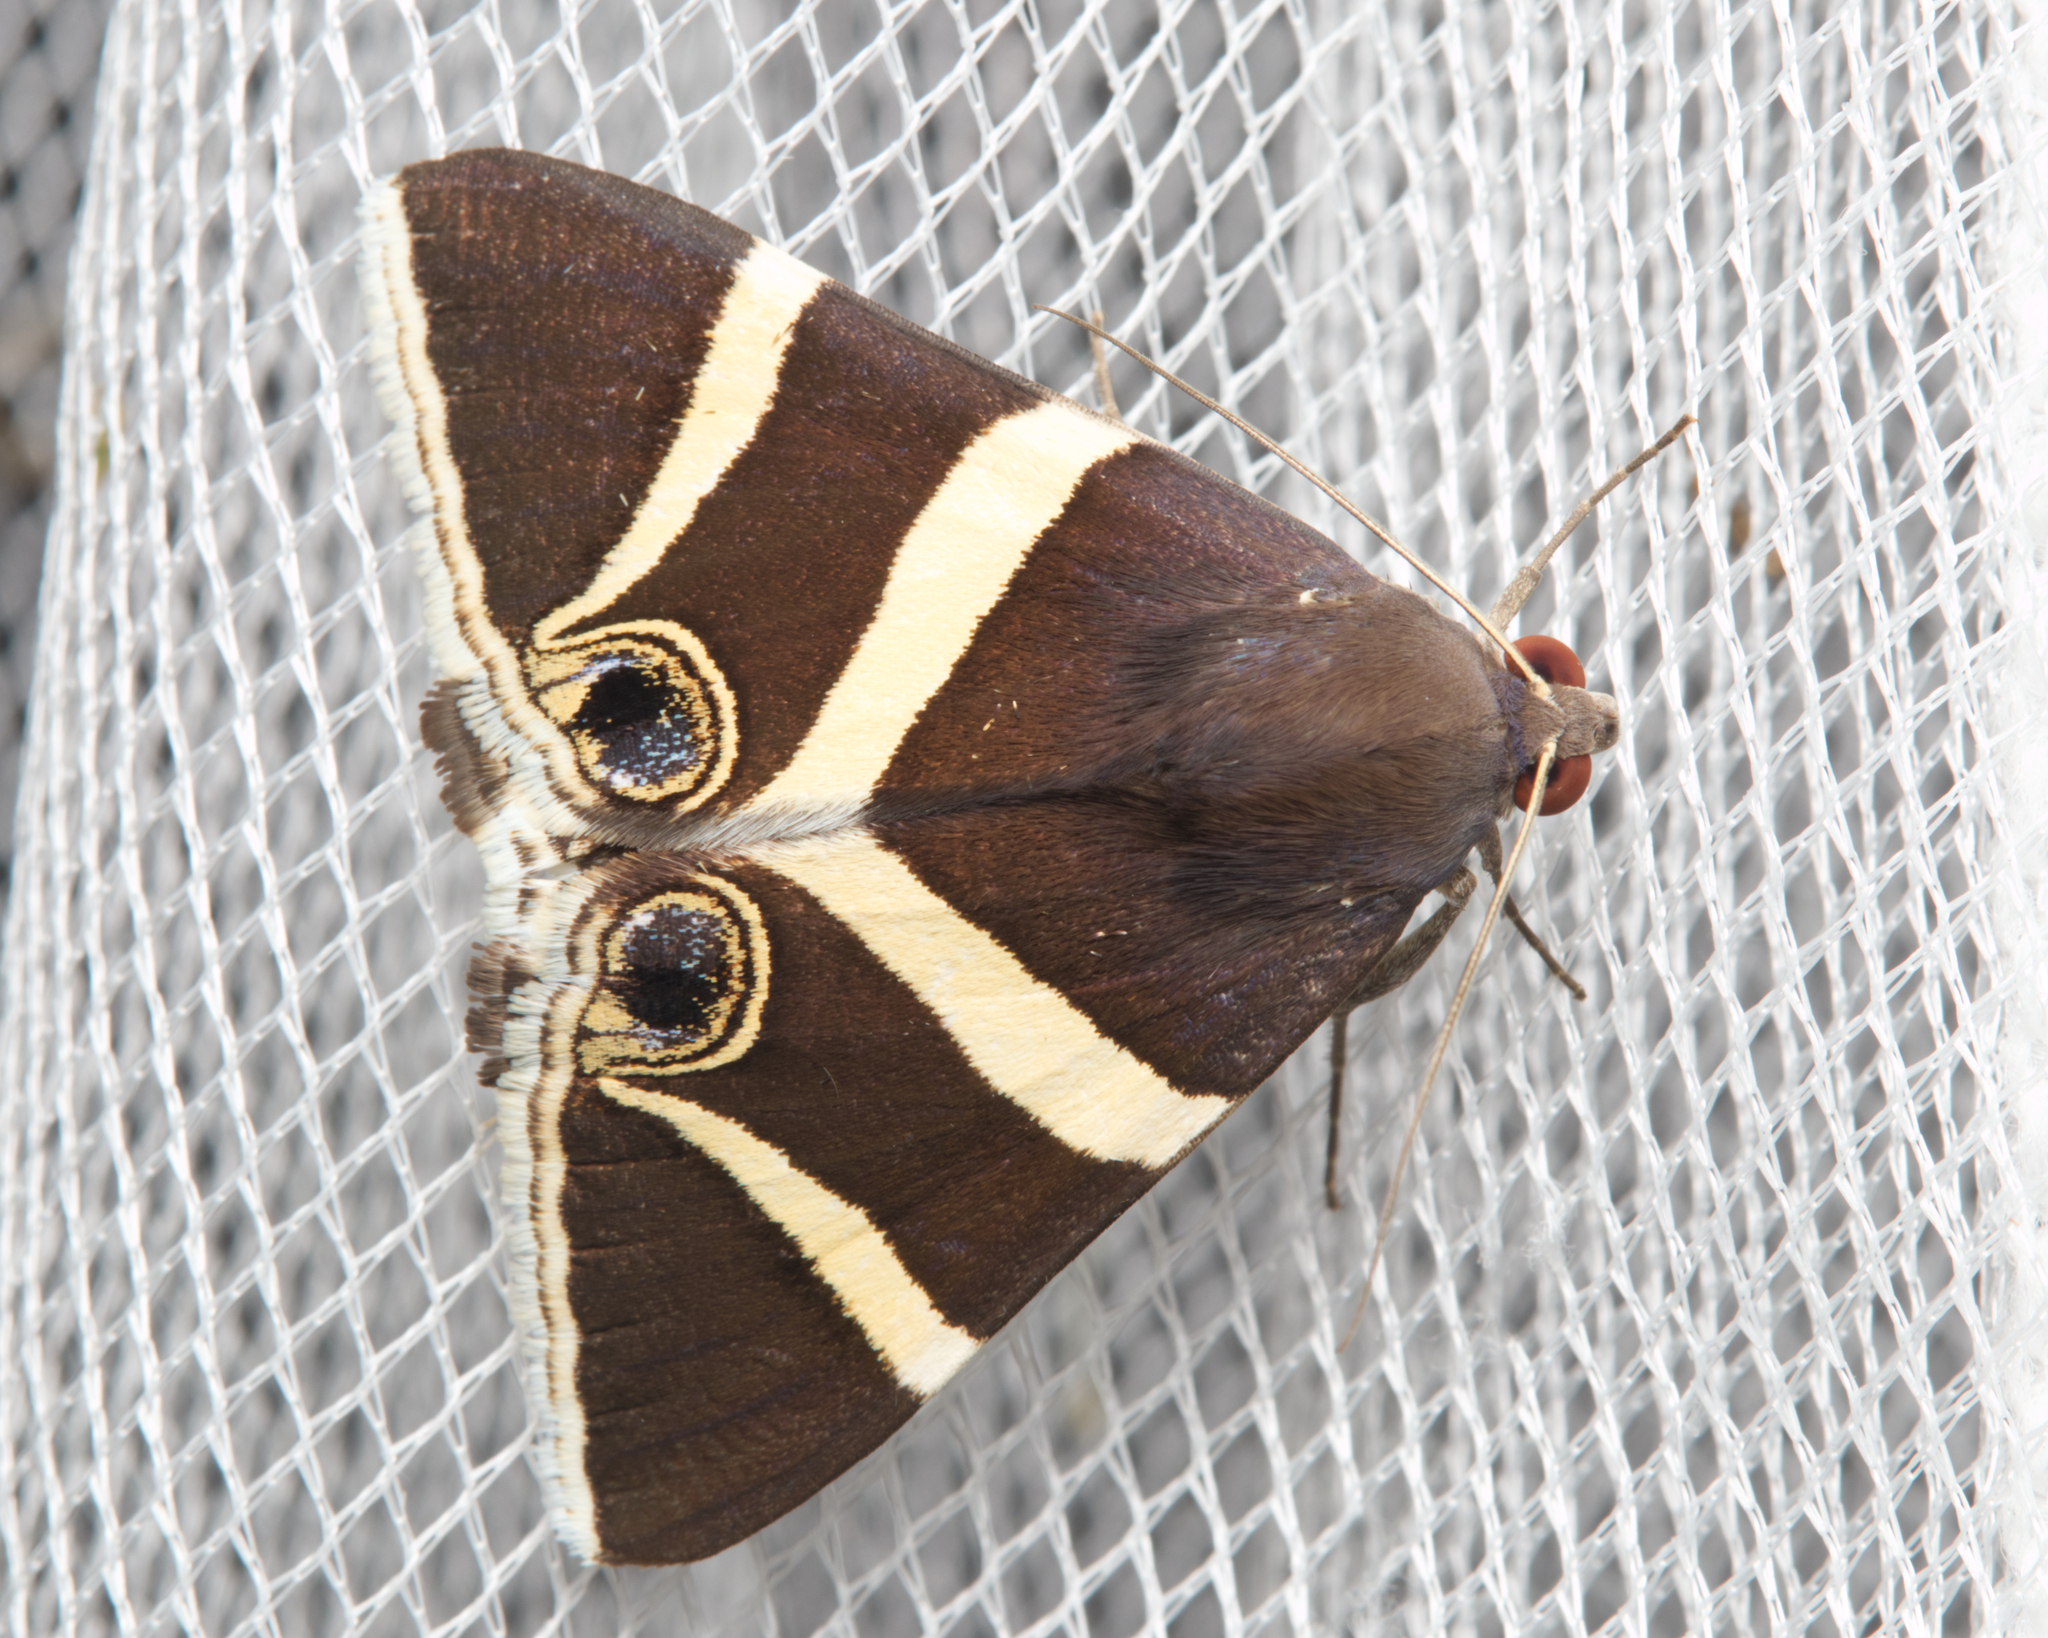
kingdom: Animalia
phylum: Arthropoda
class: Insecta
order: Lepidoptera
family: Erebidae
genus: Grammodes
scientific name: Grammodes ocellata
